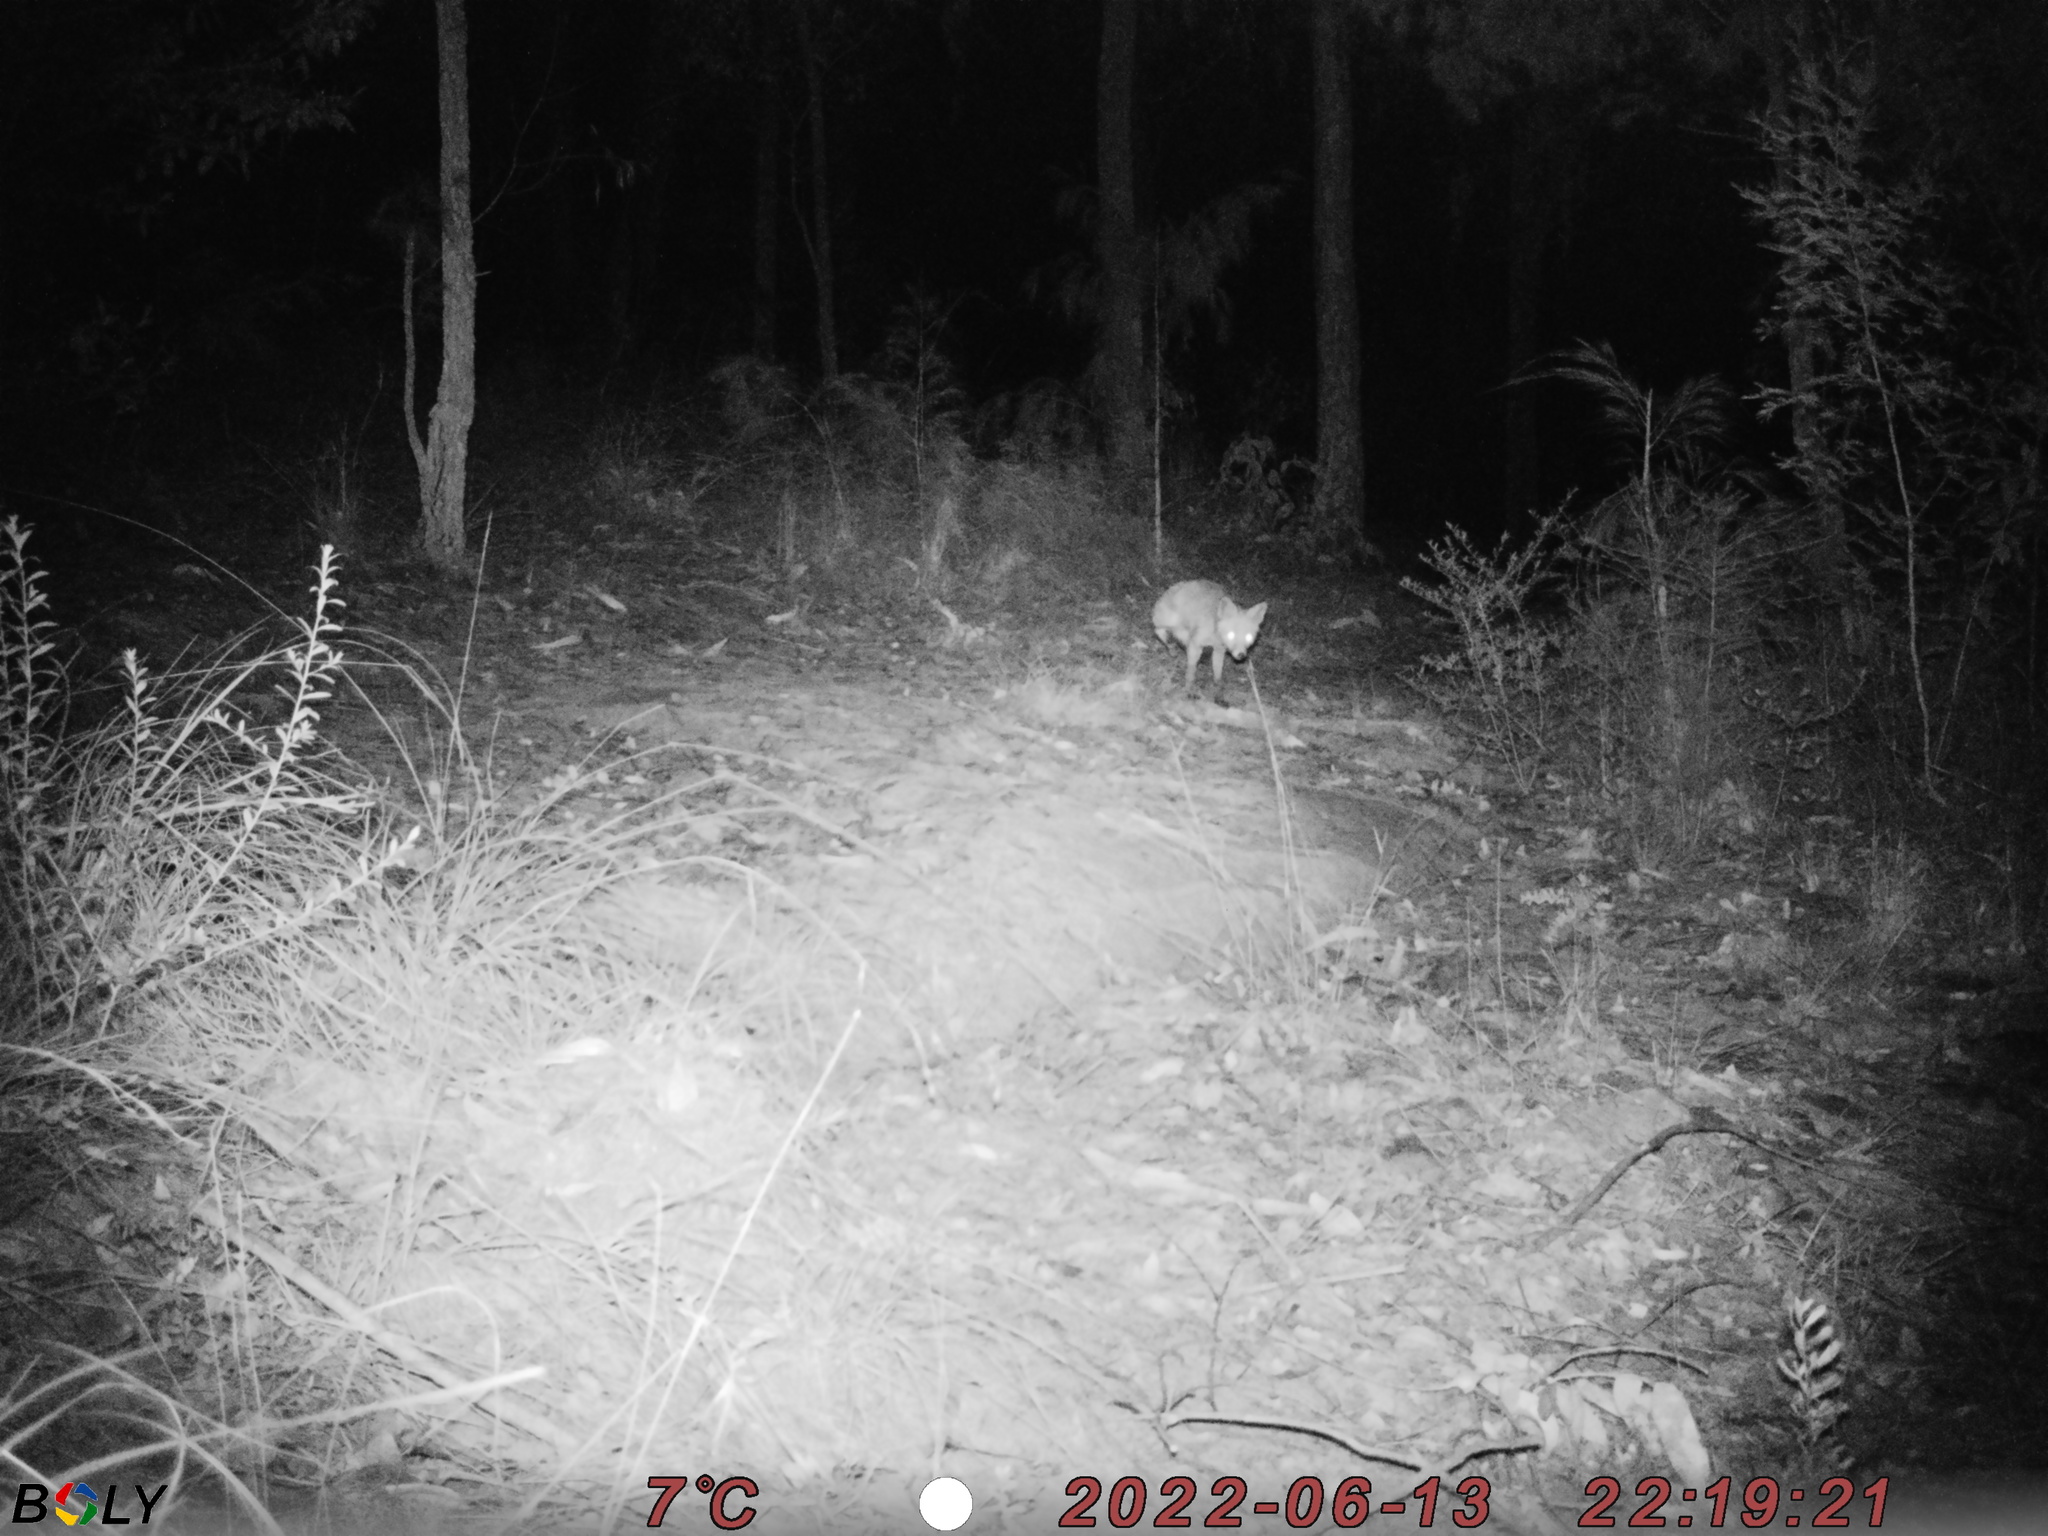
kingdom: Animalia
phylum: Chordata
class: Mammalia
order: Carnivora
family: Canidae
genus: Vulpes
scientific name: Vulpes vulpes
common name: Red fox
